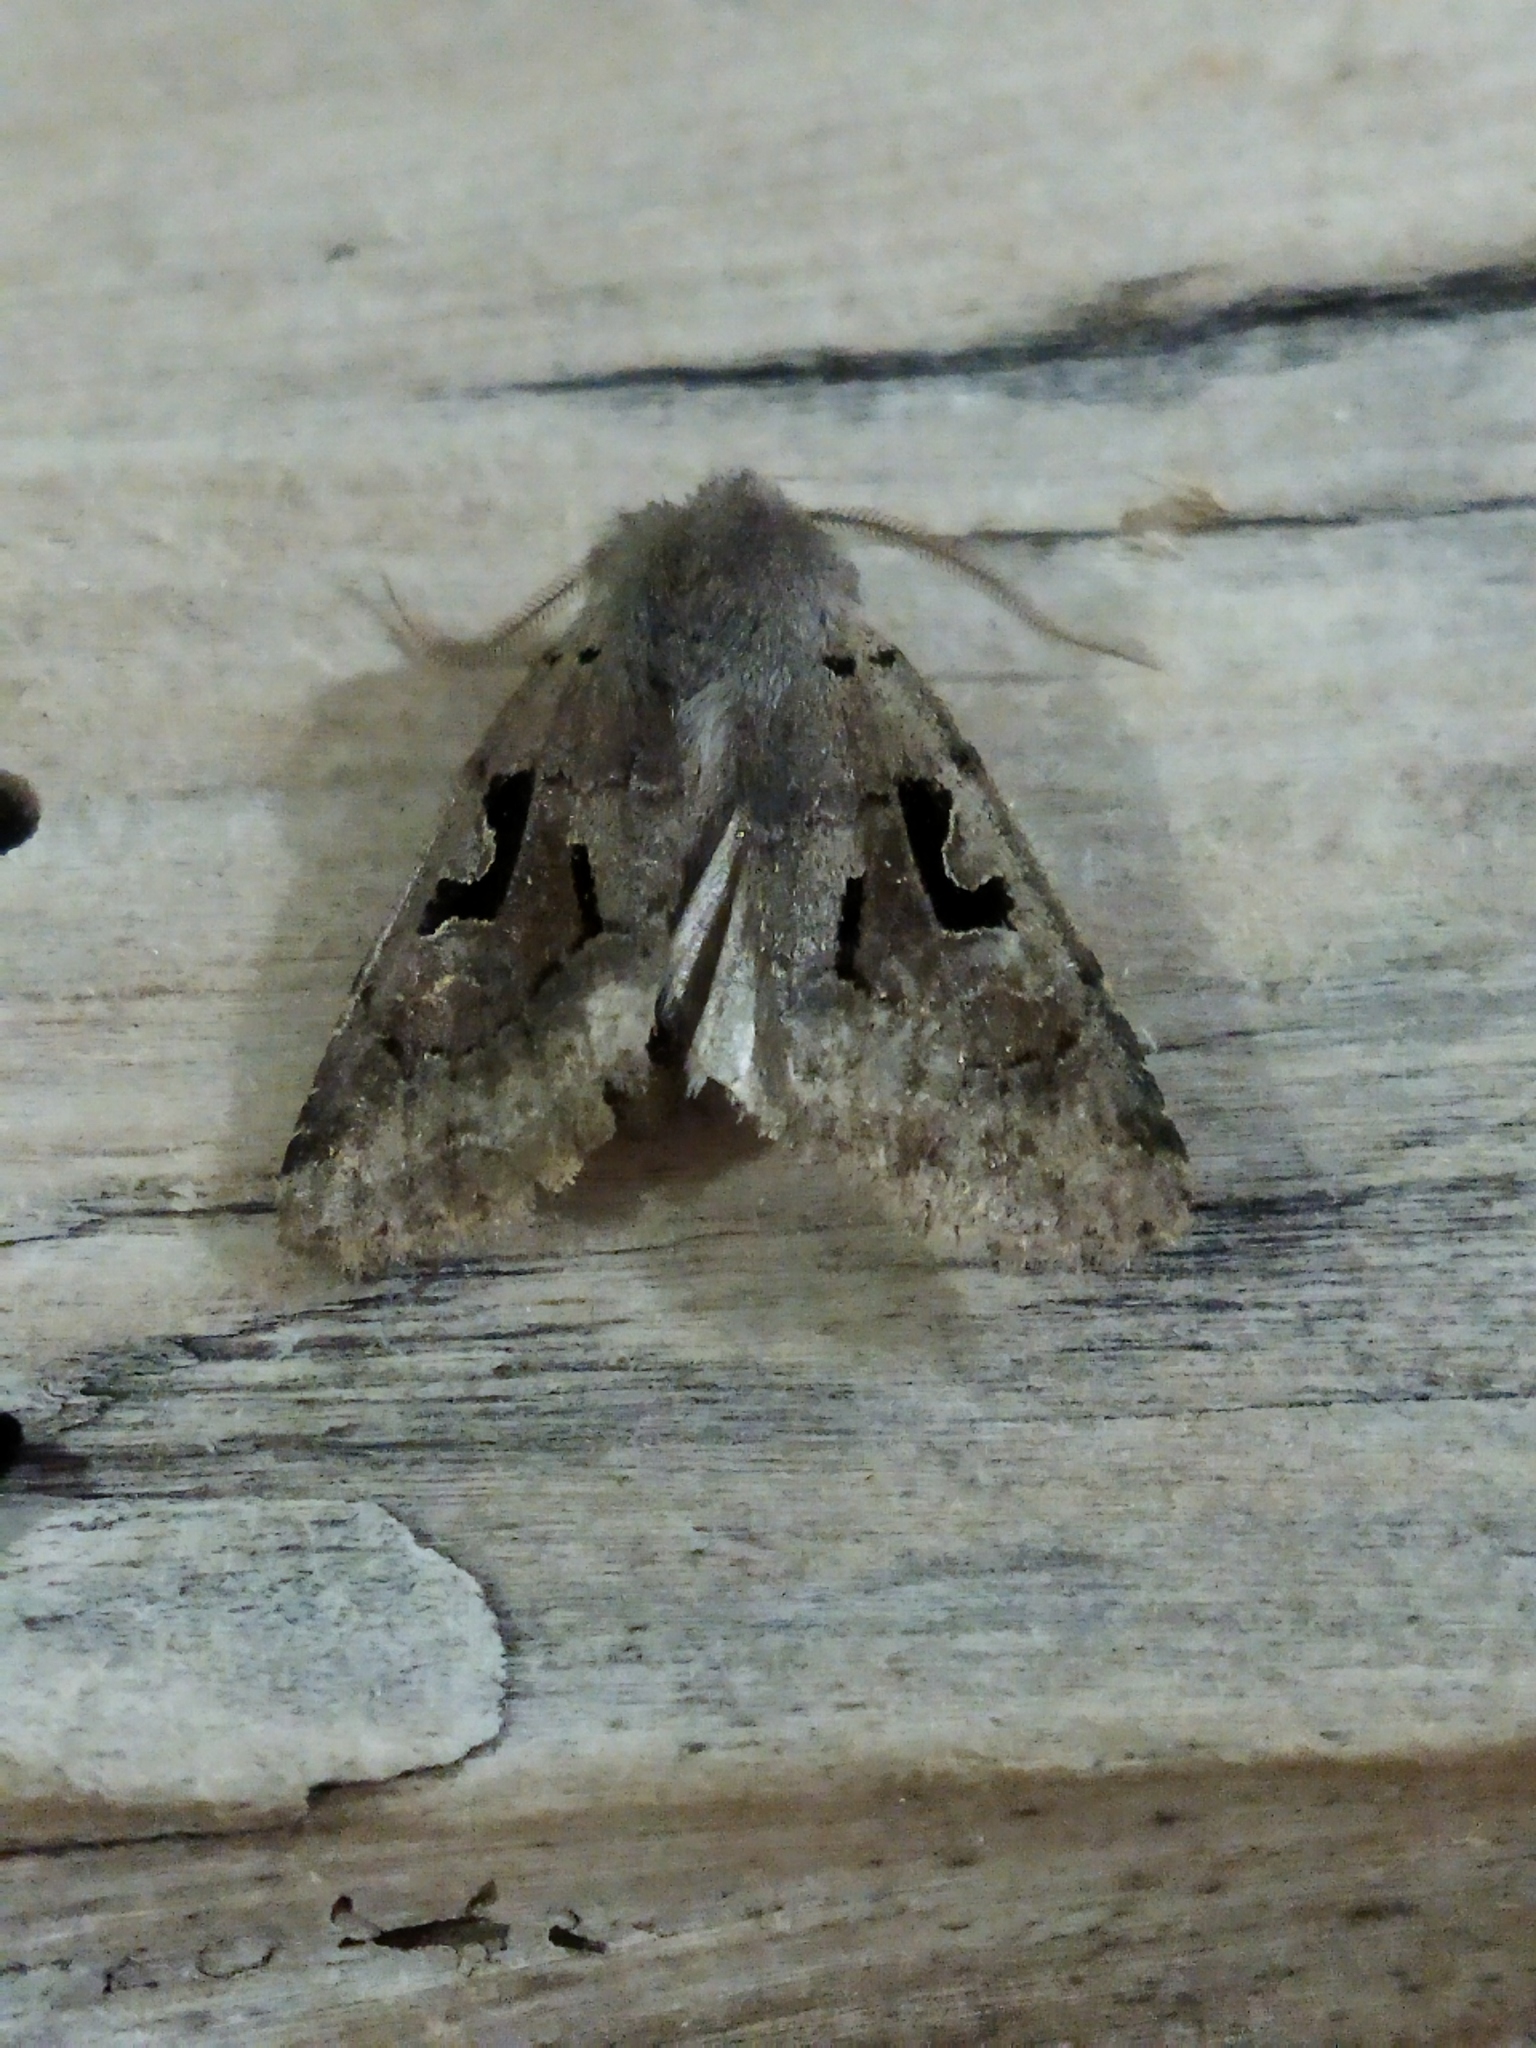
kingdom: Animalia
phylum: Arthropoda
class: Insecta
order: Lepidoptera
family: Noctuidae
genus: Orthosia
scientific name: Orthosia gothica
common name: Hebrew character
